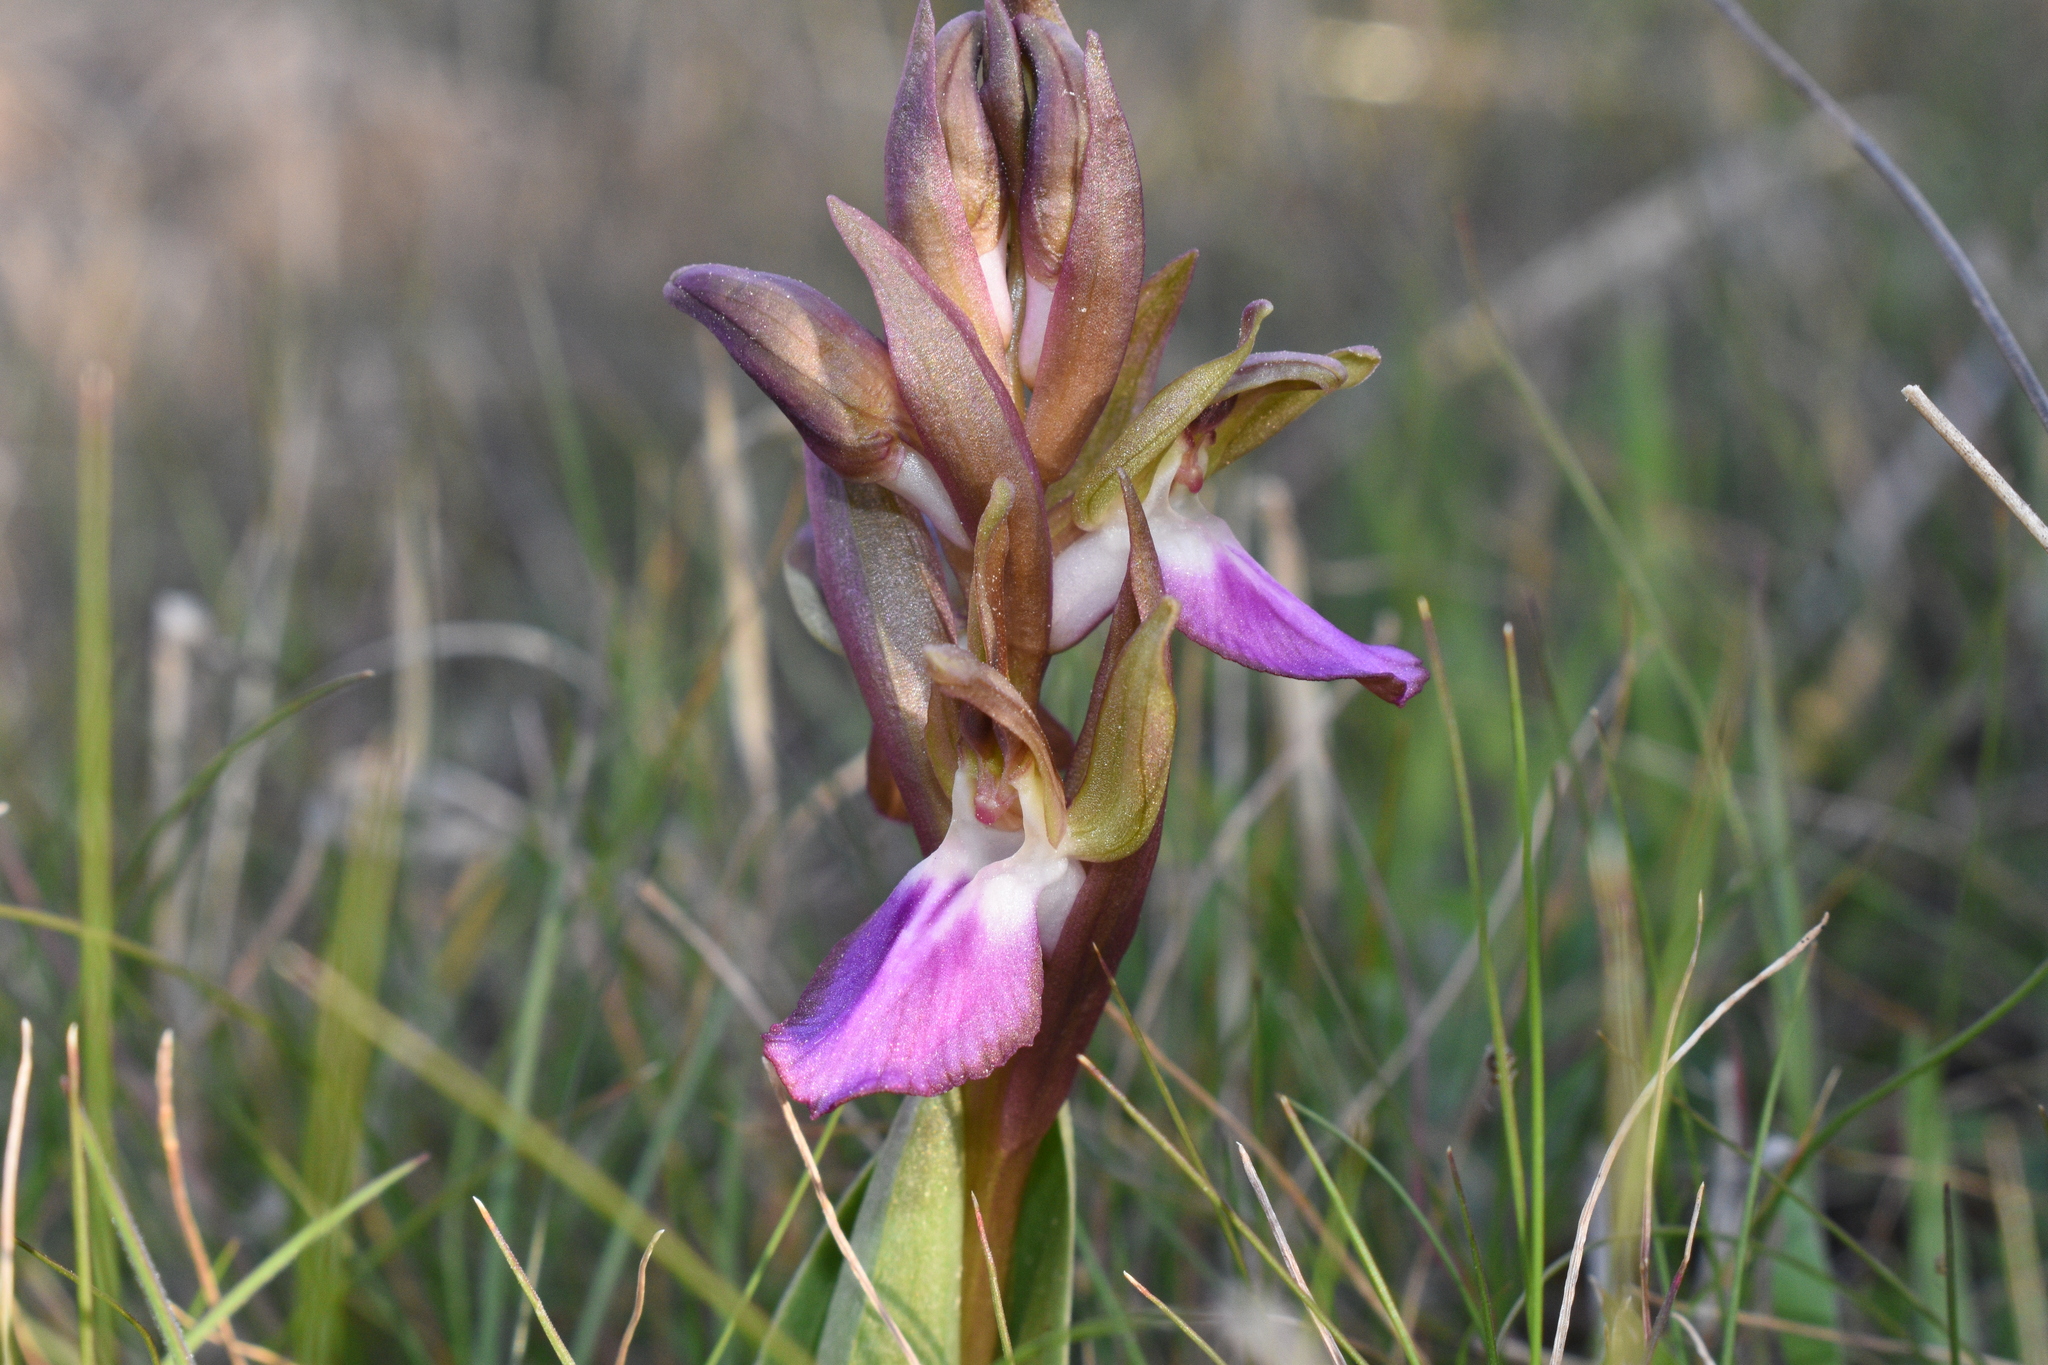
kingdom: Plantae
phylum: Tracheophyta
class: Liliopsida
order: Asparagales
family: Orchidaceae
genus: Anacamptis
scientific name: Anacamptis collina
